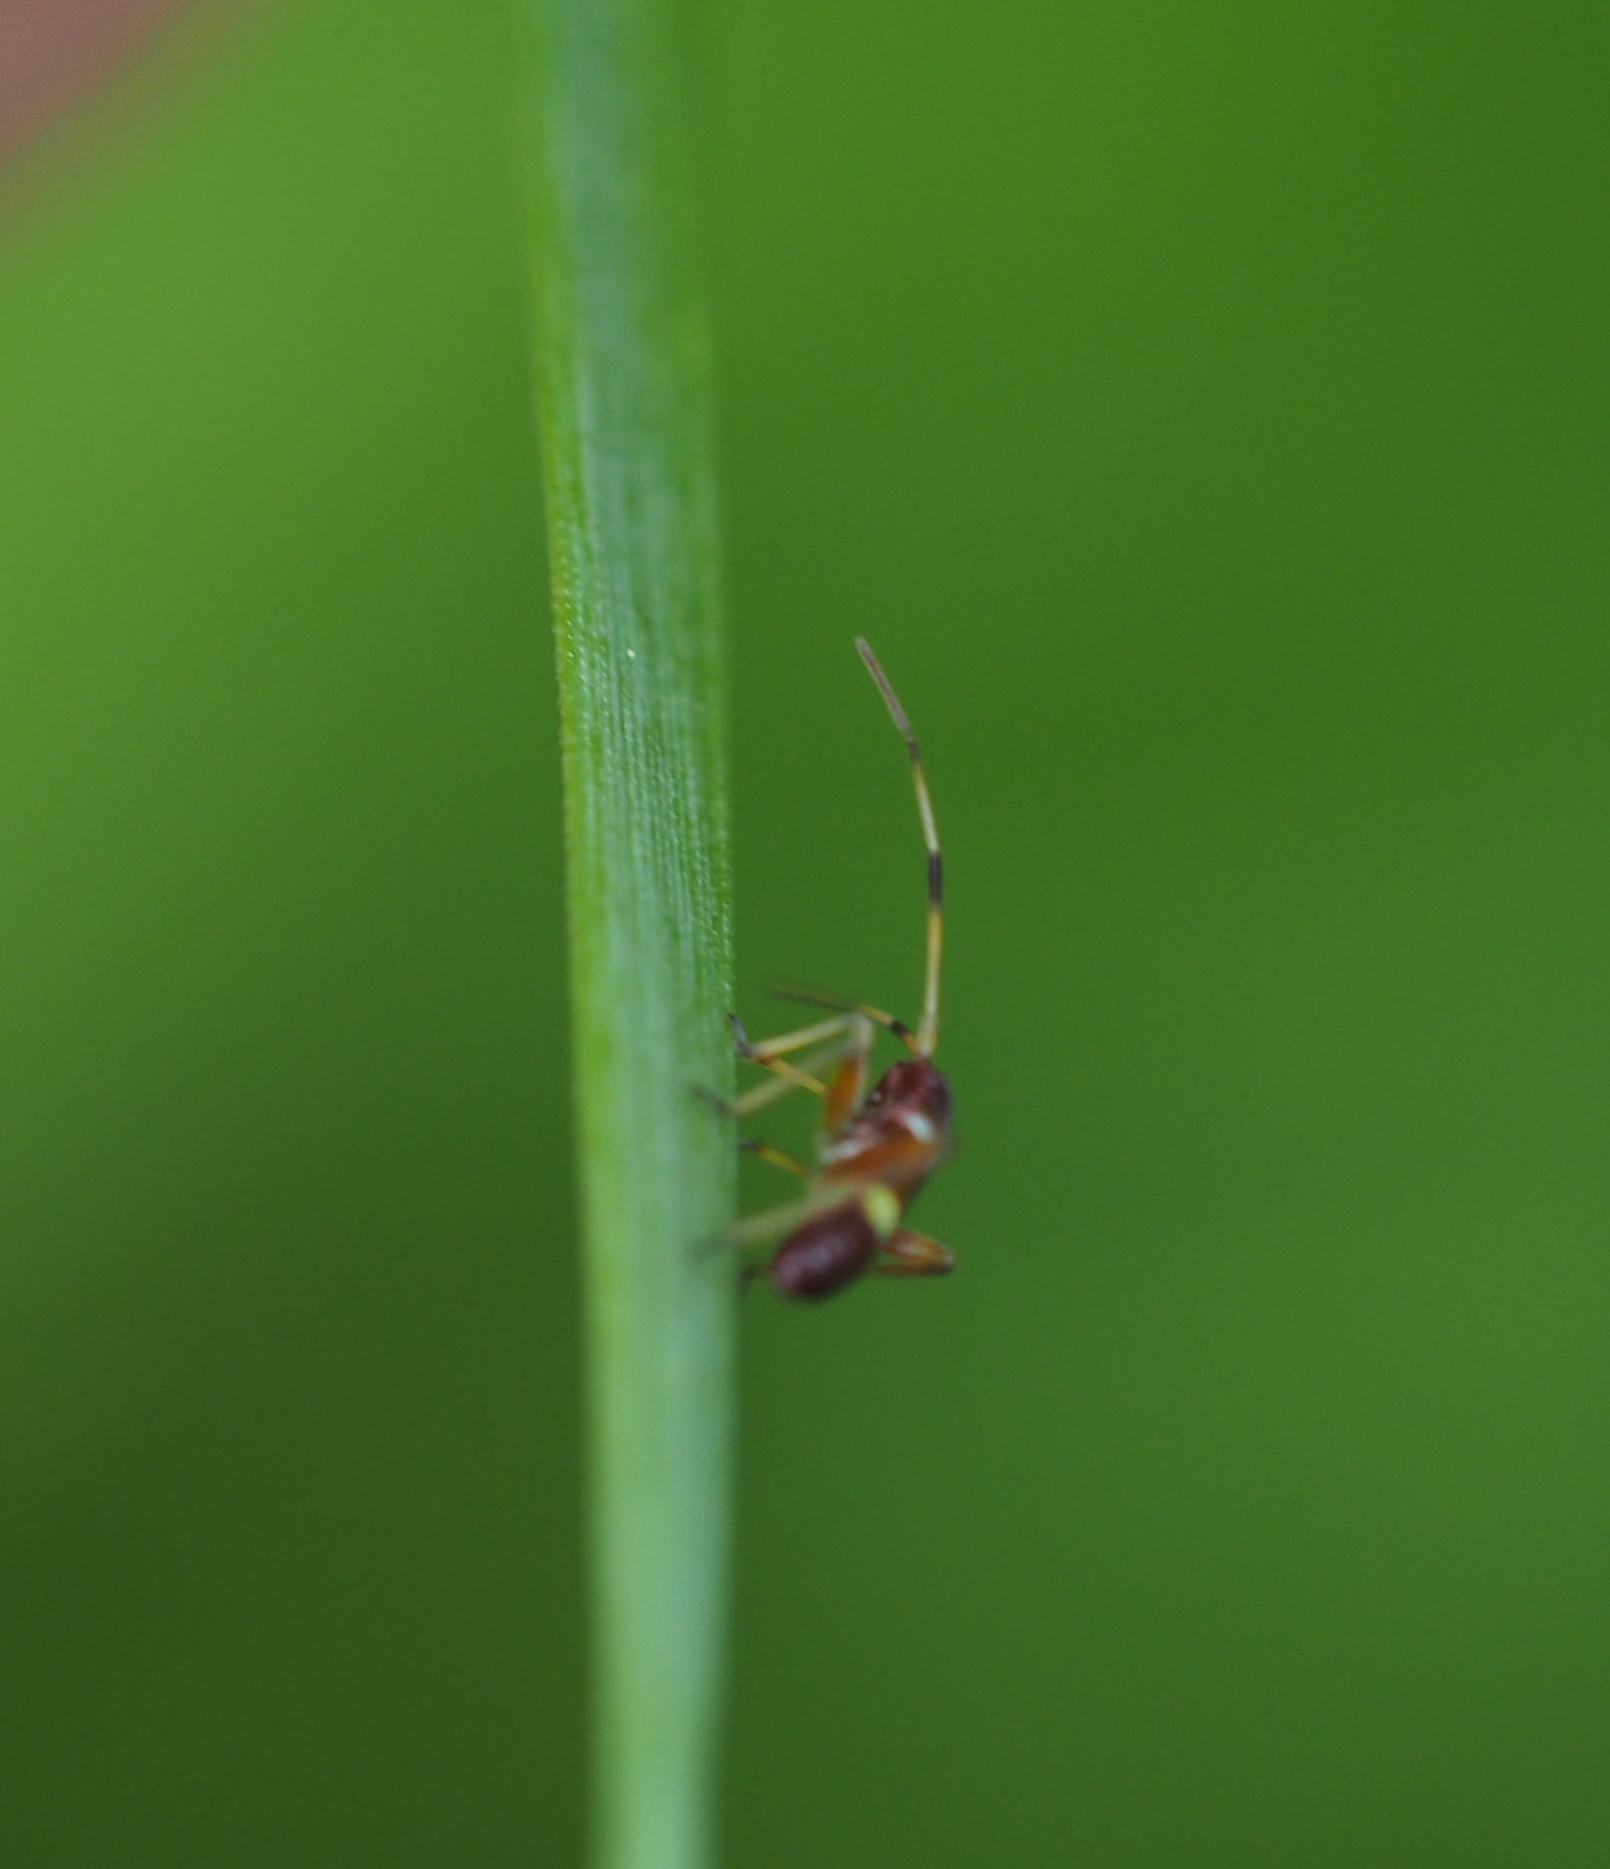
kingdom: Animalia
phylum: Arthropoda
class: Insecta
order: Hemiptera
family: Miridae
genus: Closterotomus
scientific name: Closterotomus biclavatus
